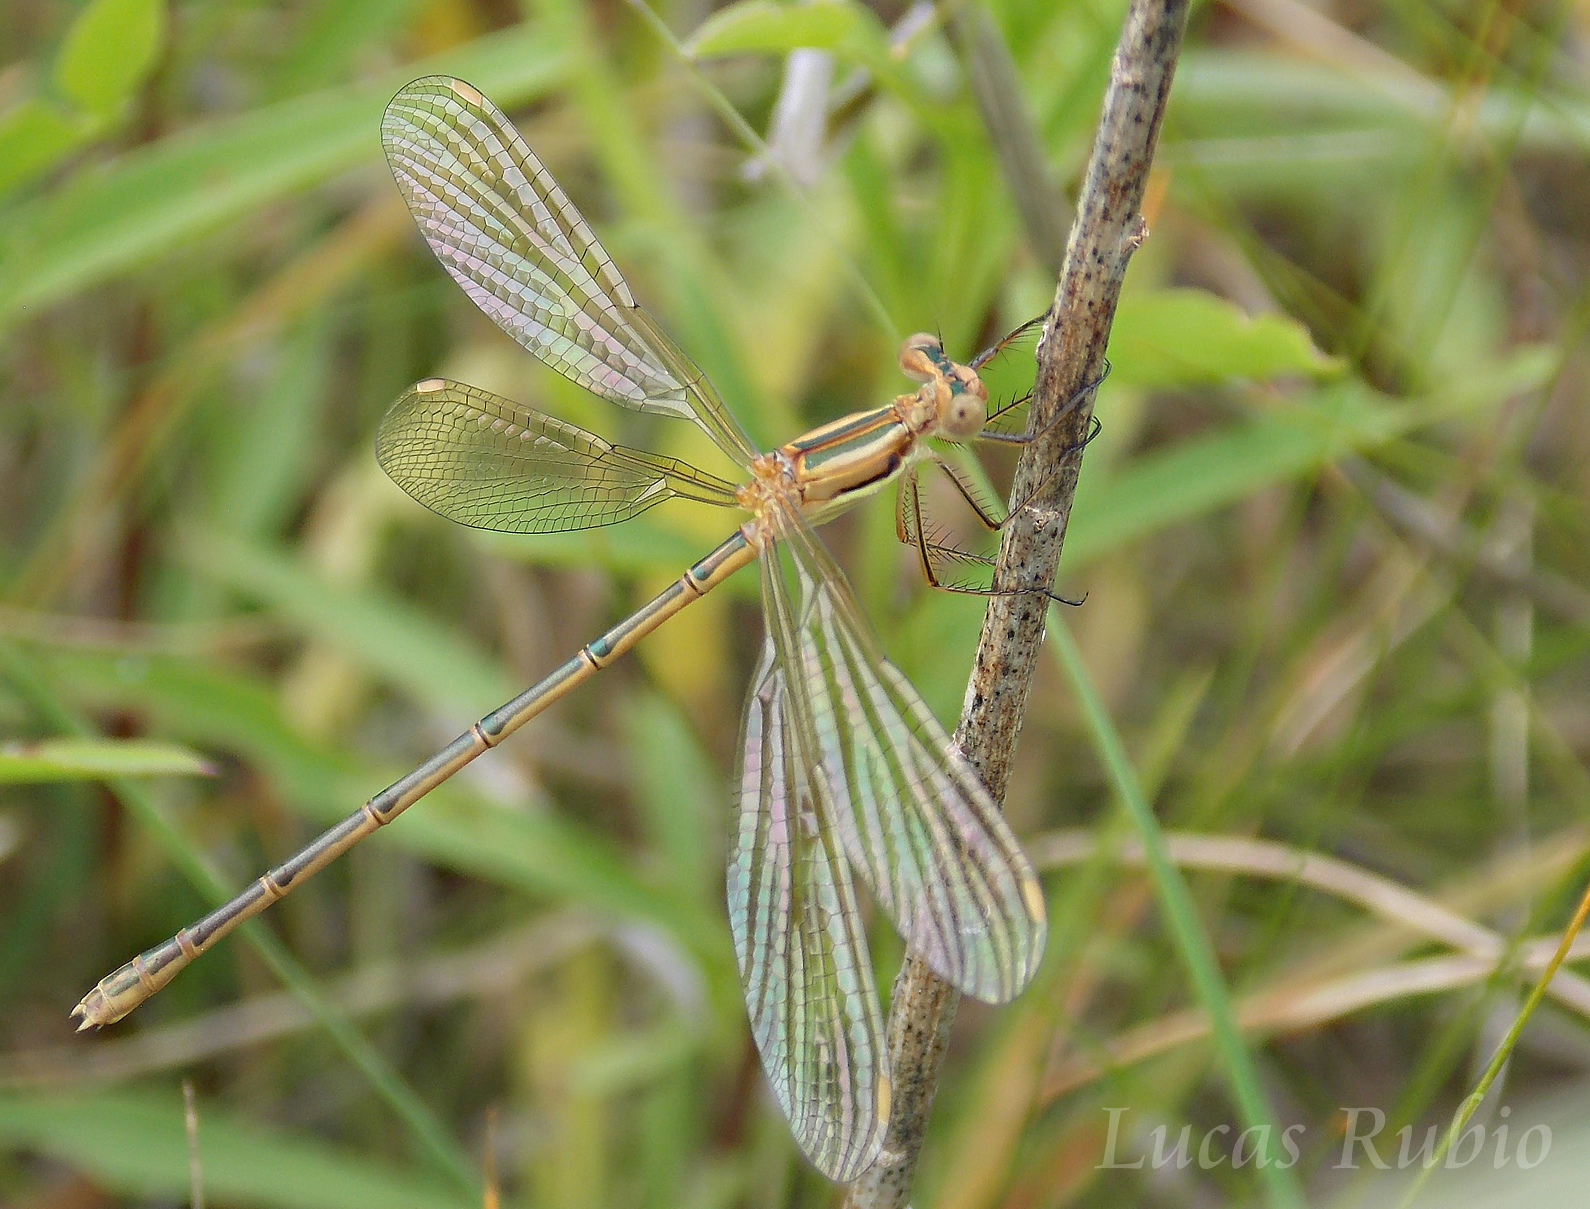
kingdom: Animalia
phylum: Arthropoda
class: Insecta
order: Odonata
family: Lestidae
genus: Lestes
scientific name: Lestes undulatus
